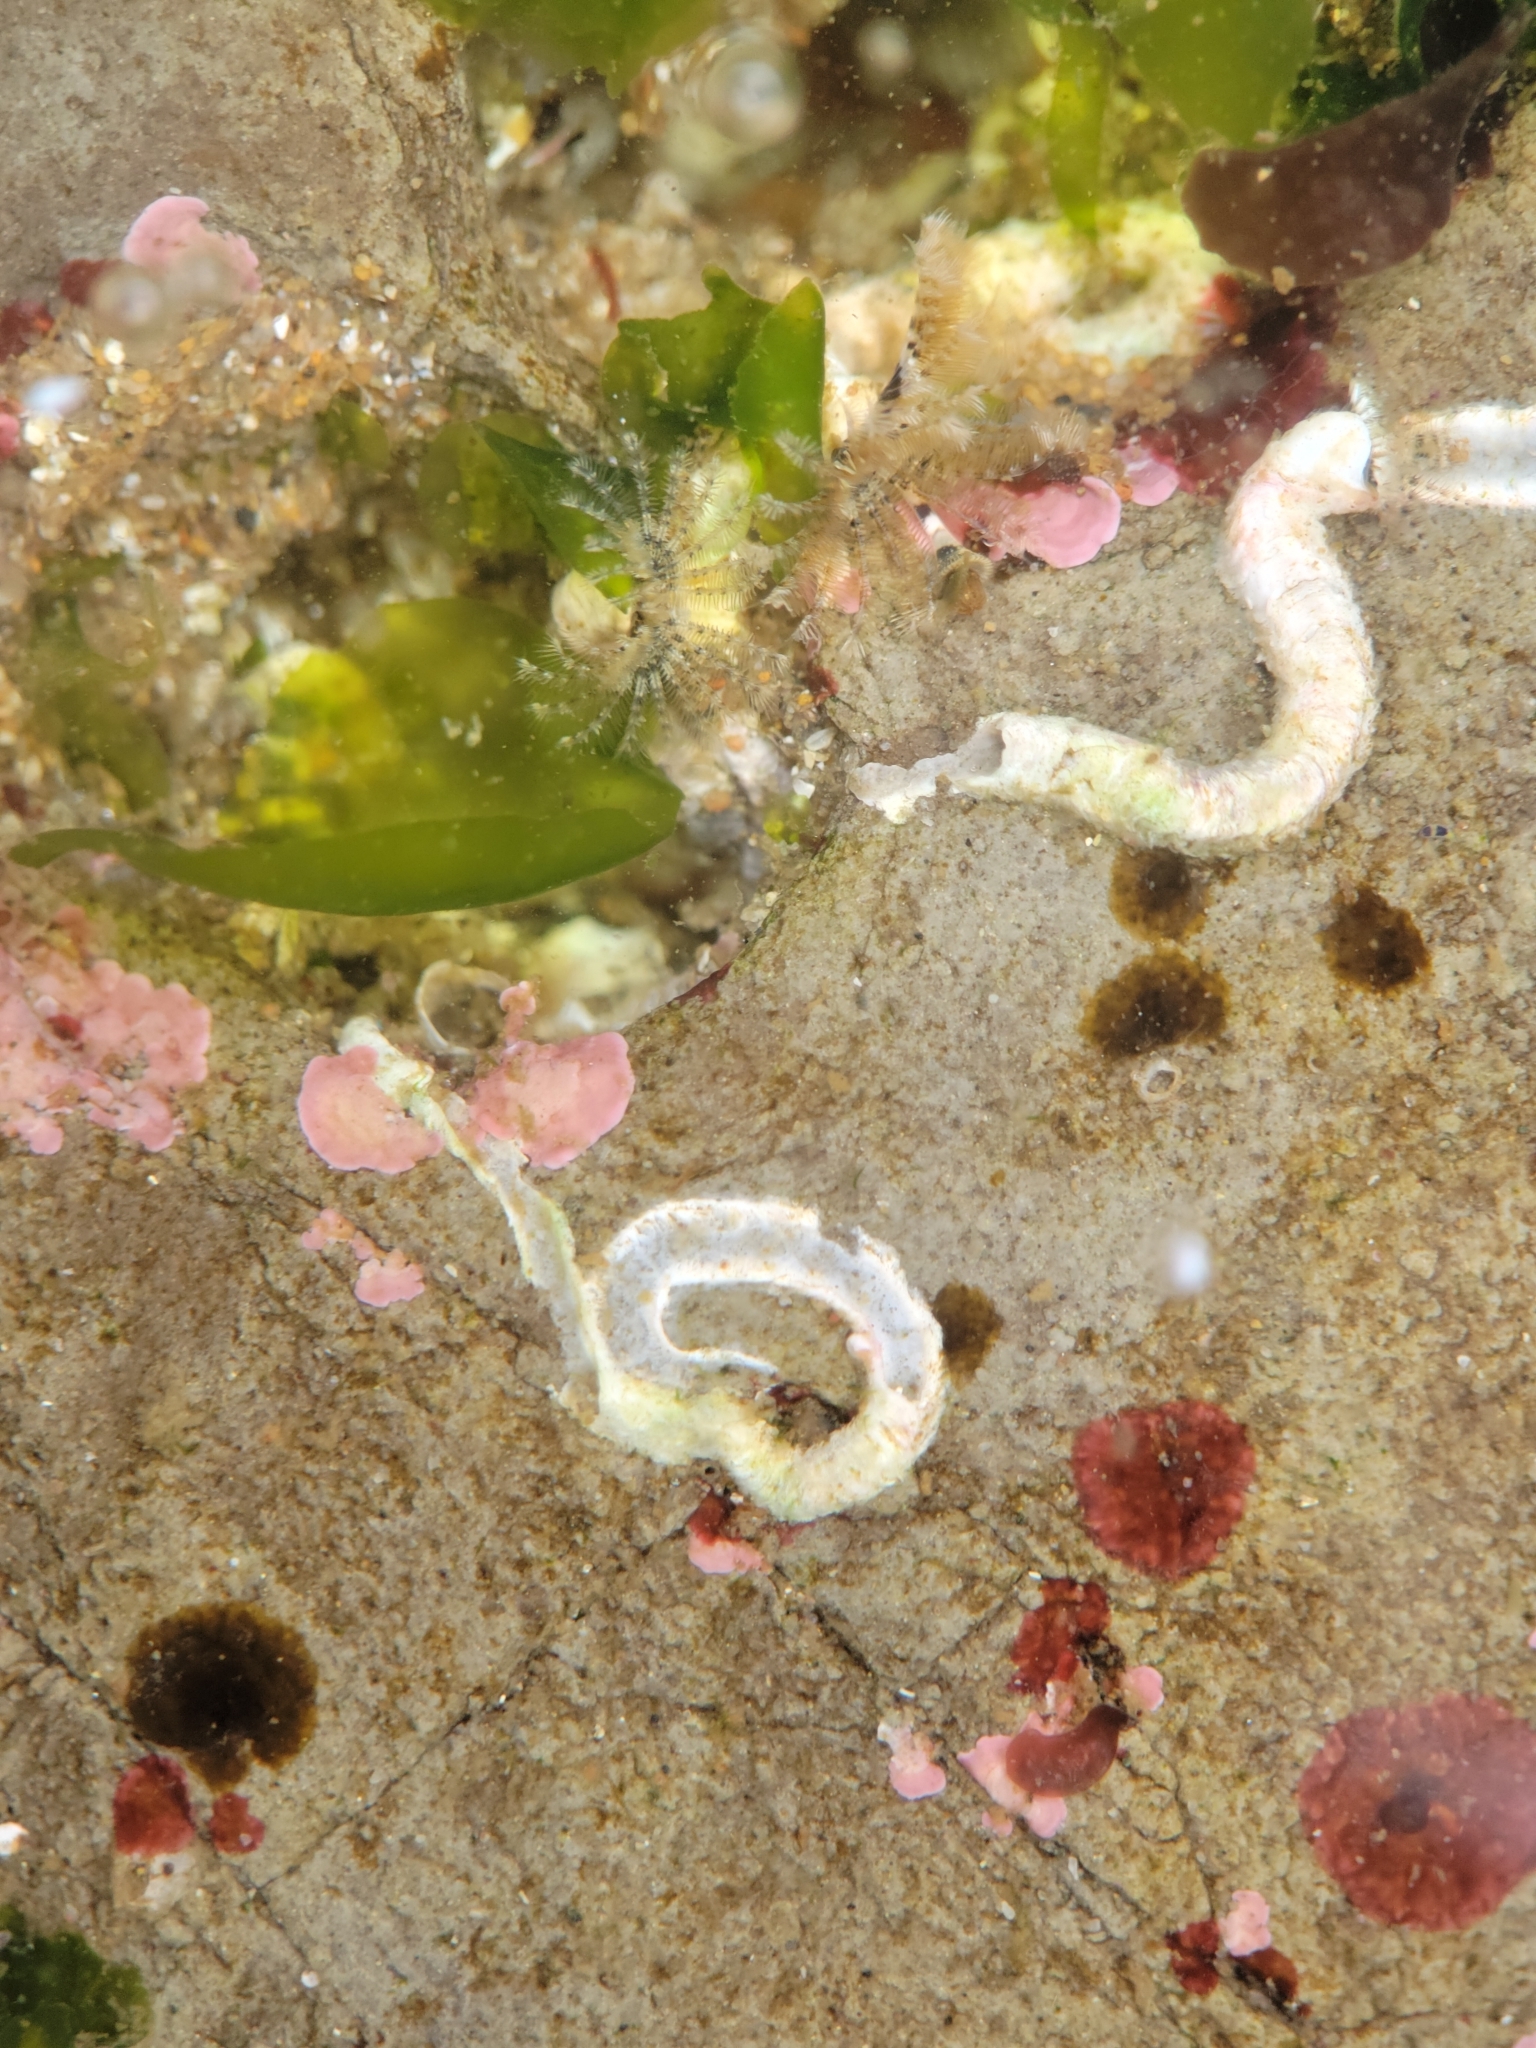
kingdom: Animalia
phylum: Annelida
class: Polychaeta
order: Sabellida
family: Serpulidae
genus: Hydroides
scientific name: Hydroides gracilis
